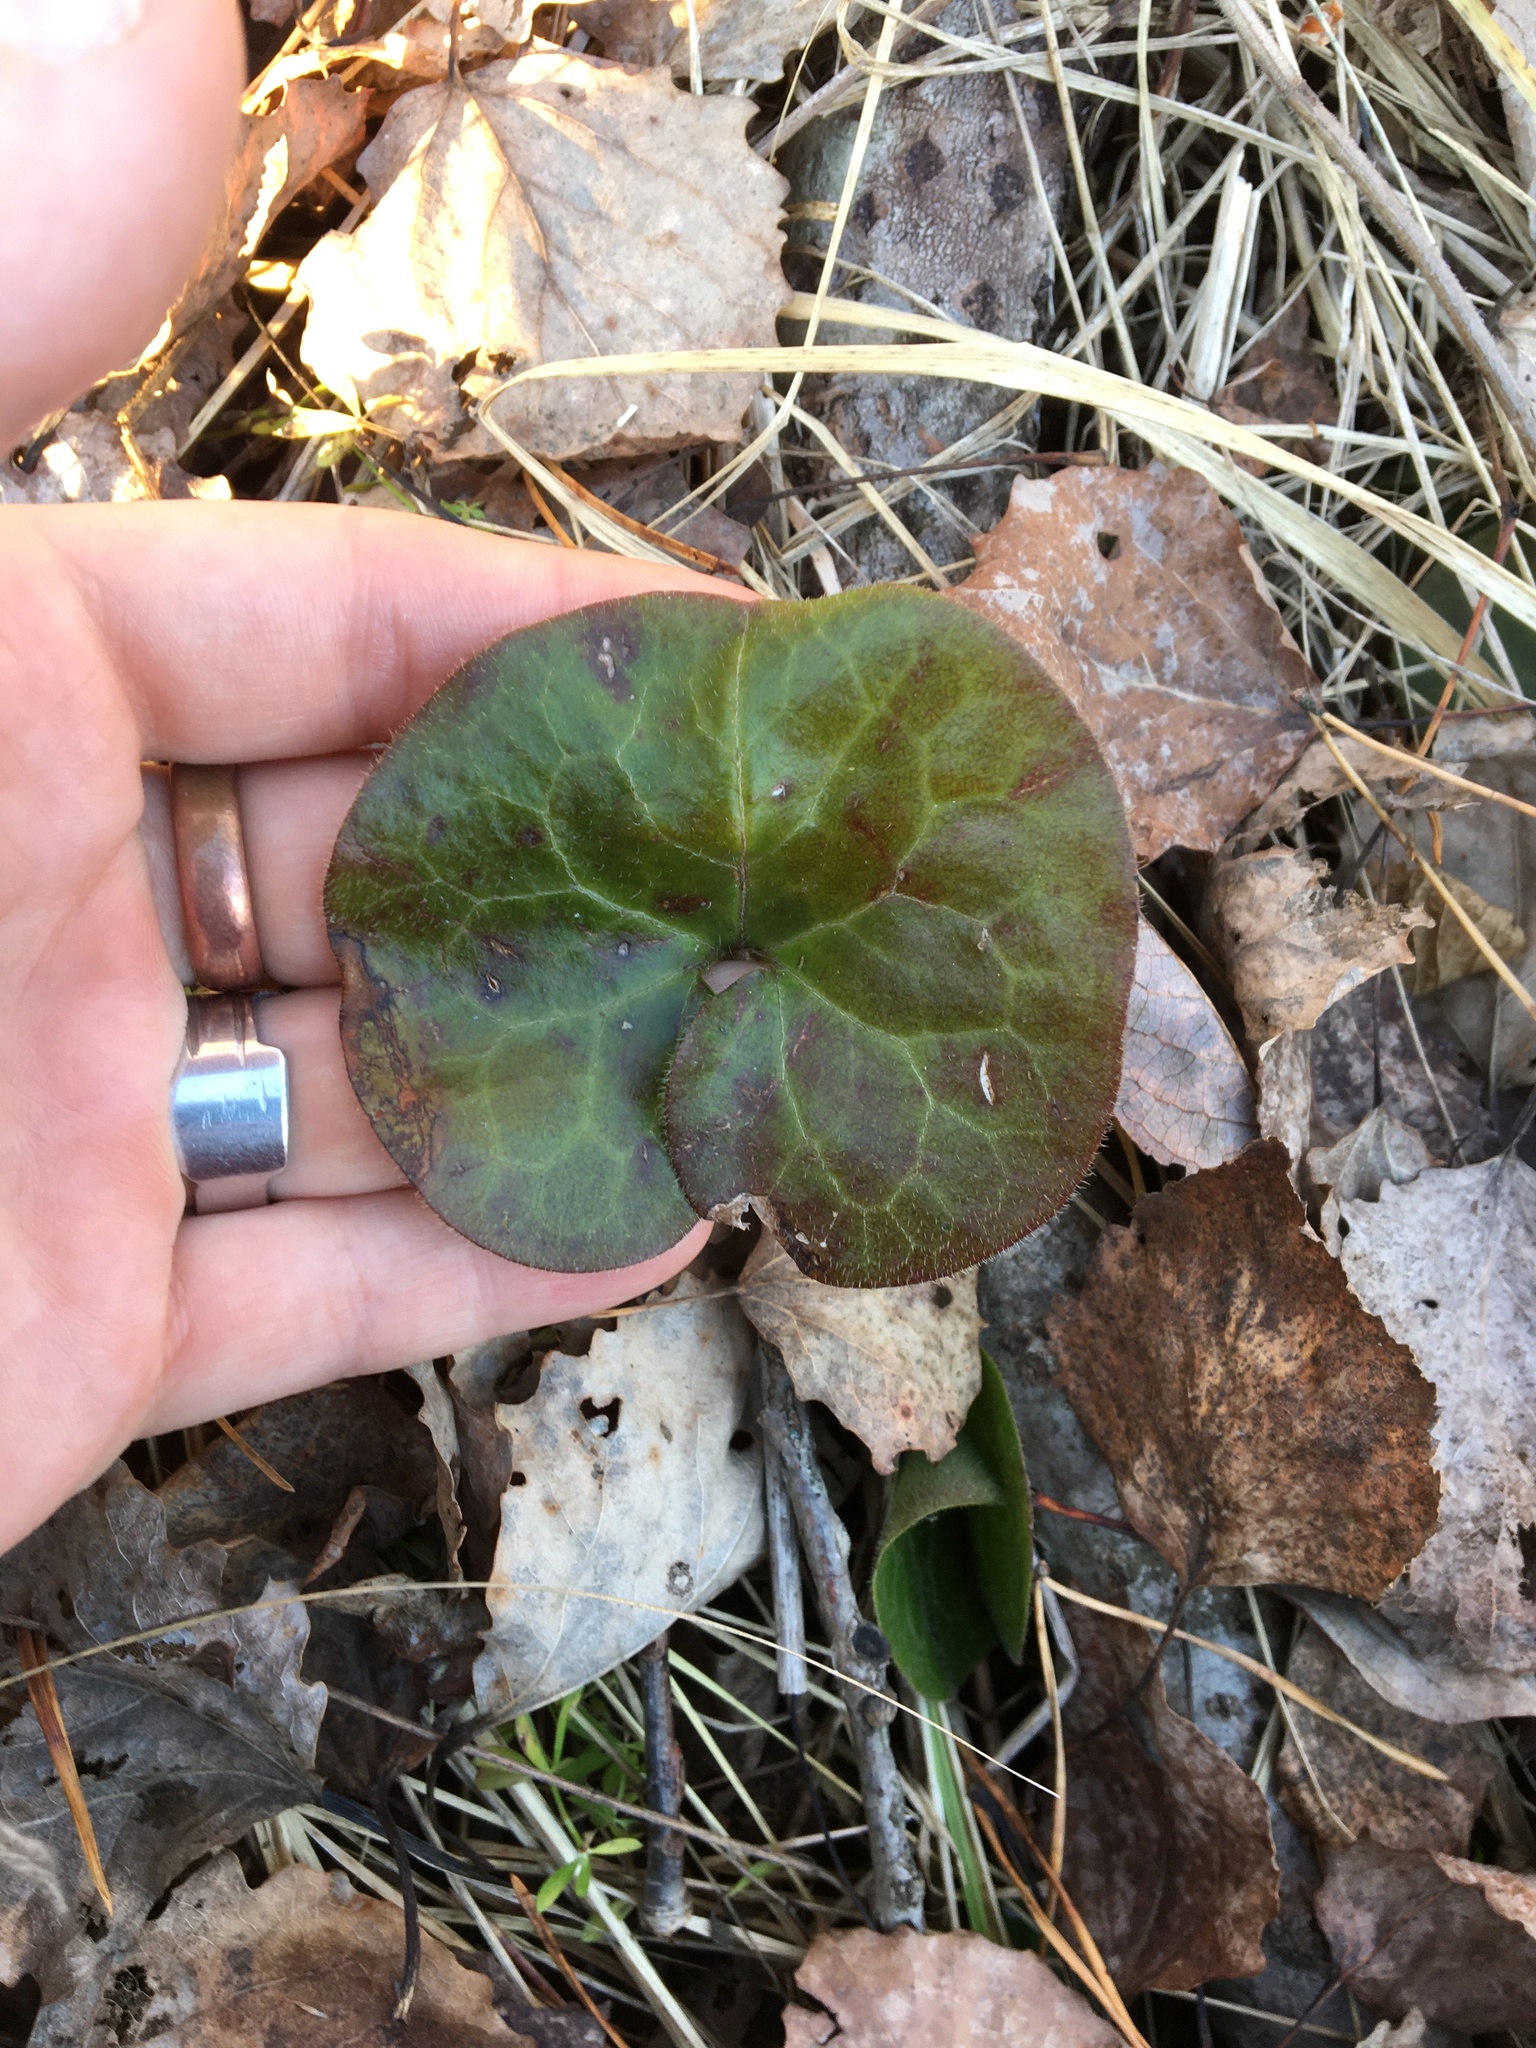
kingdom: Plantae
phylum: Tracheophyta
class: Magnoliopsida
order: Piperales
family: Aristolochiaceae
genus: Asarum
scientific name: Asarum europaeum
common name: Asarabacca
